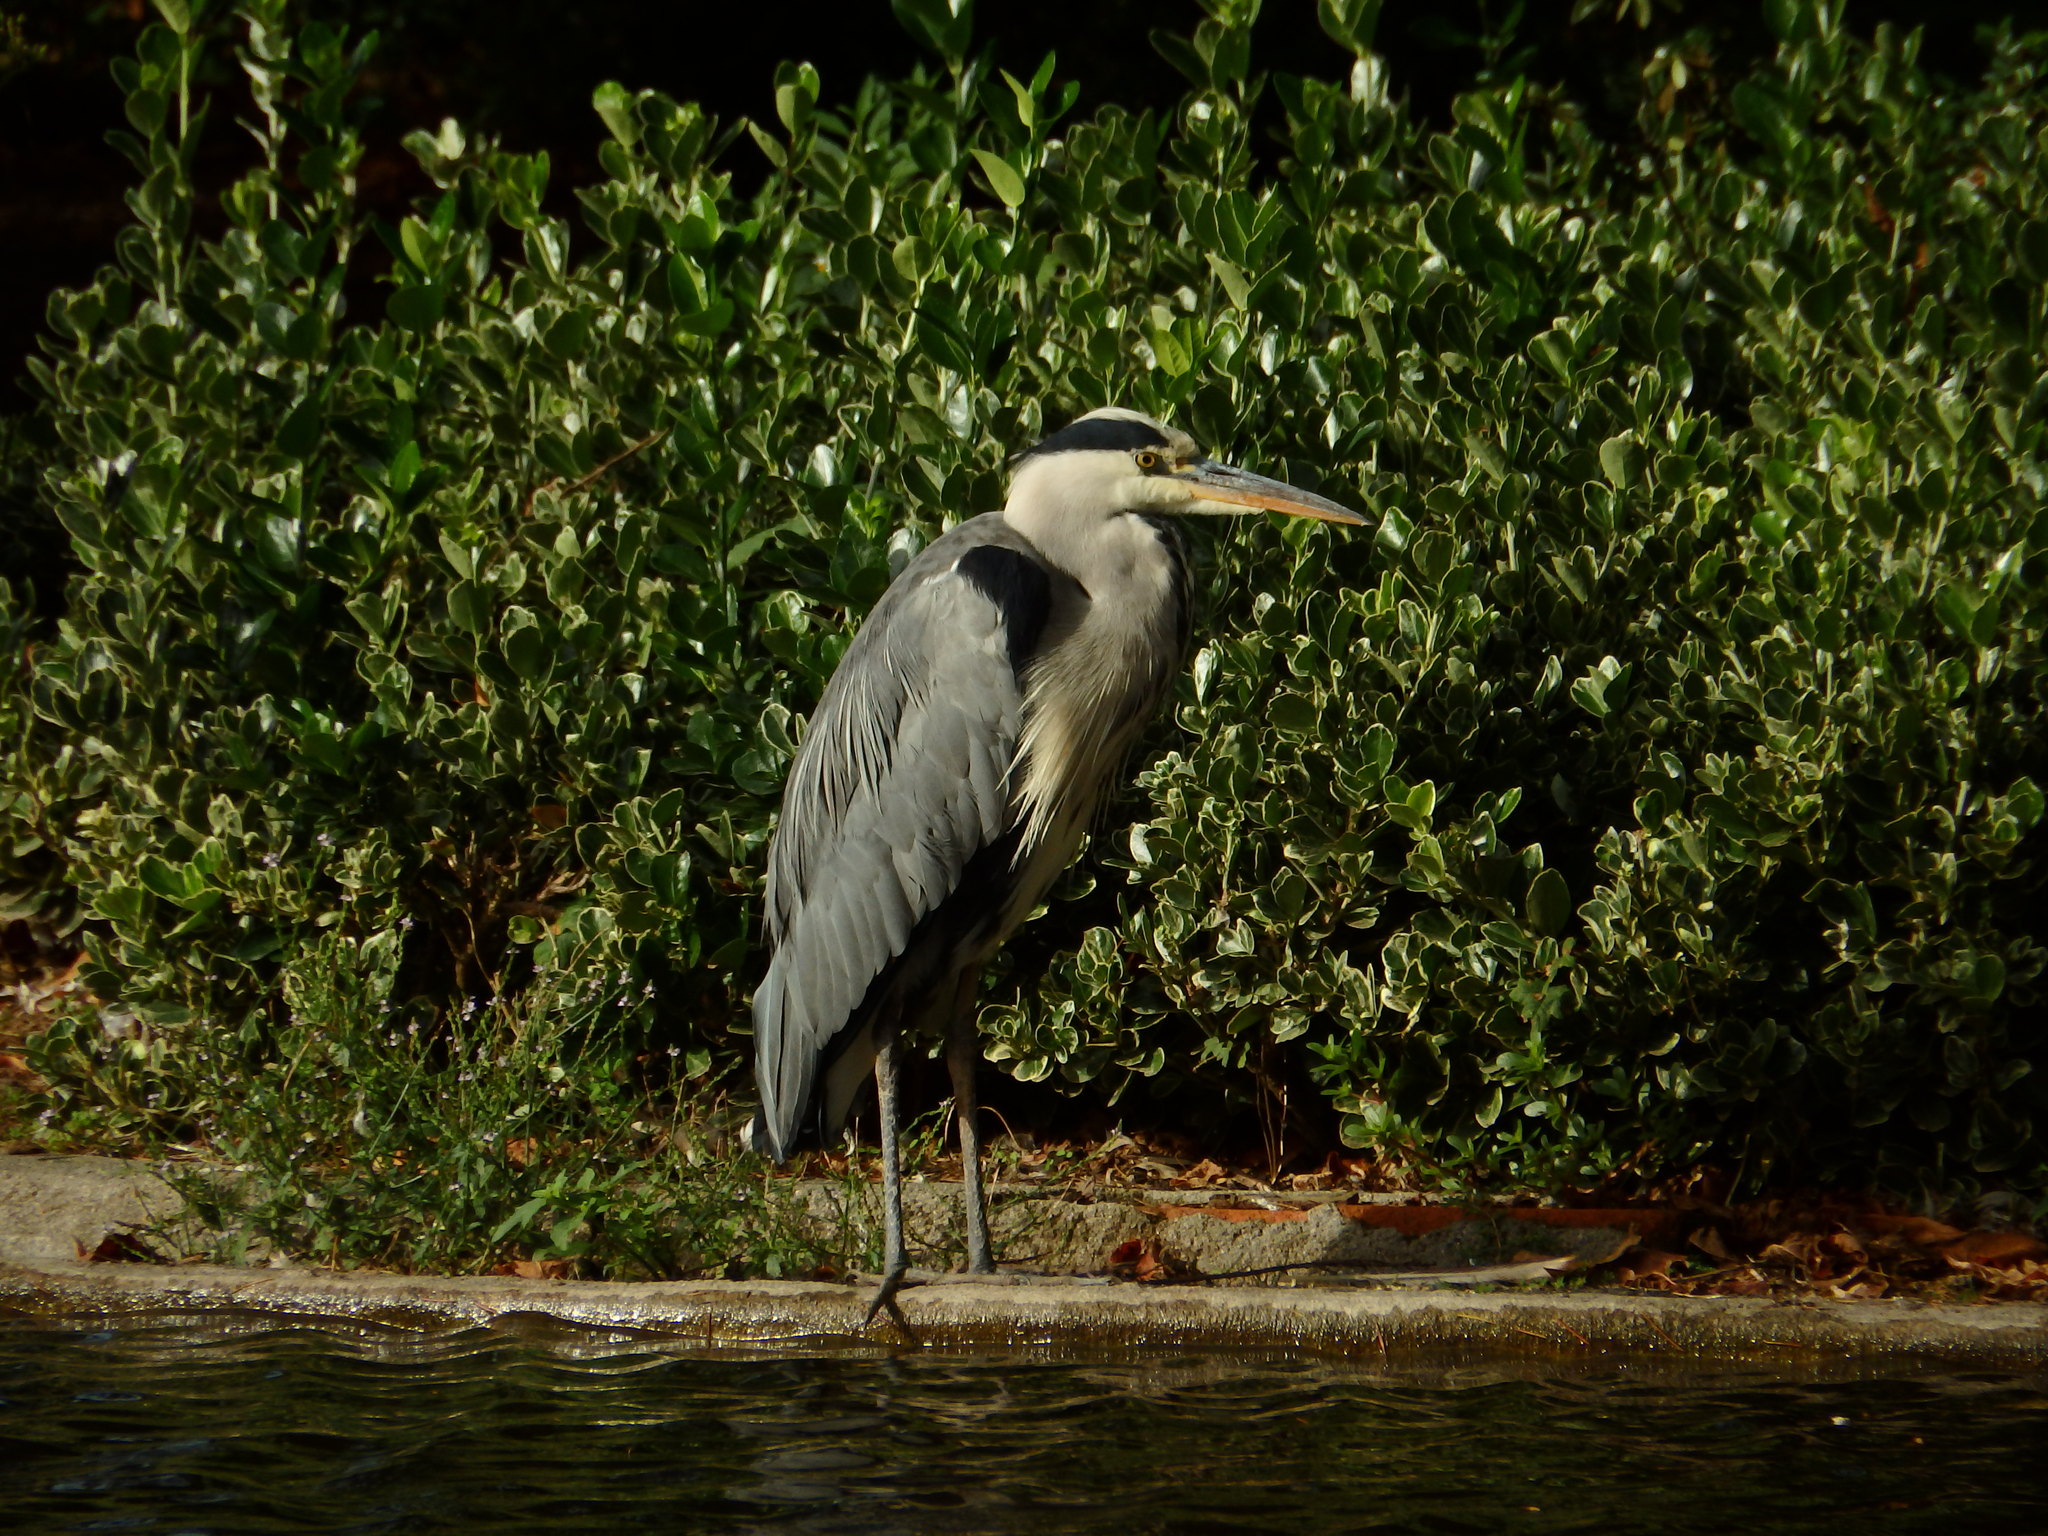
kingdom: Animalia
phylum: Chordata
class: Aves
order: Pelecaniformes
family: Ardeidae
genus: Ardea
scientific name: Ardea cinerea
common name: Grey heron
